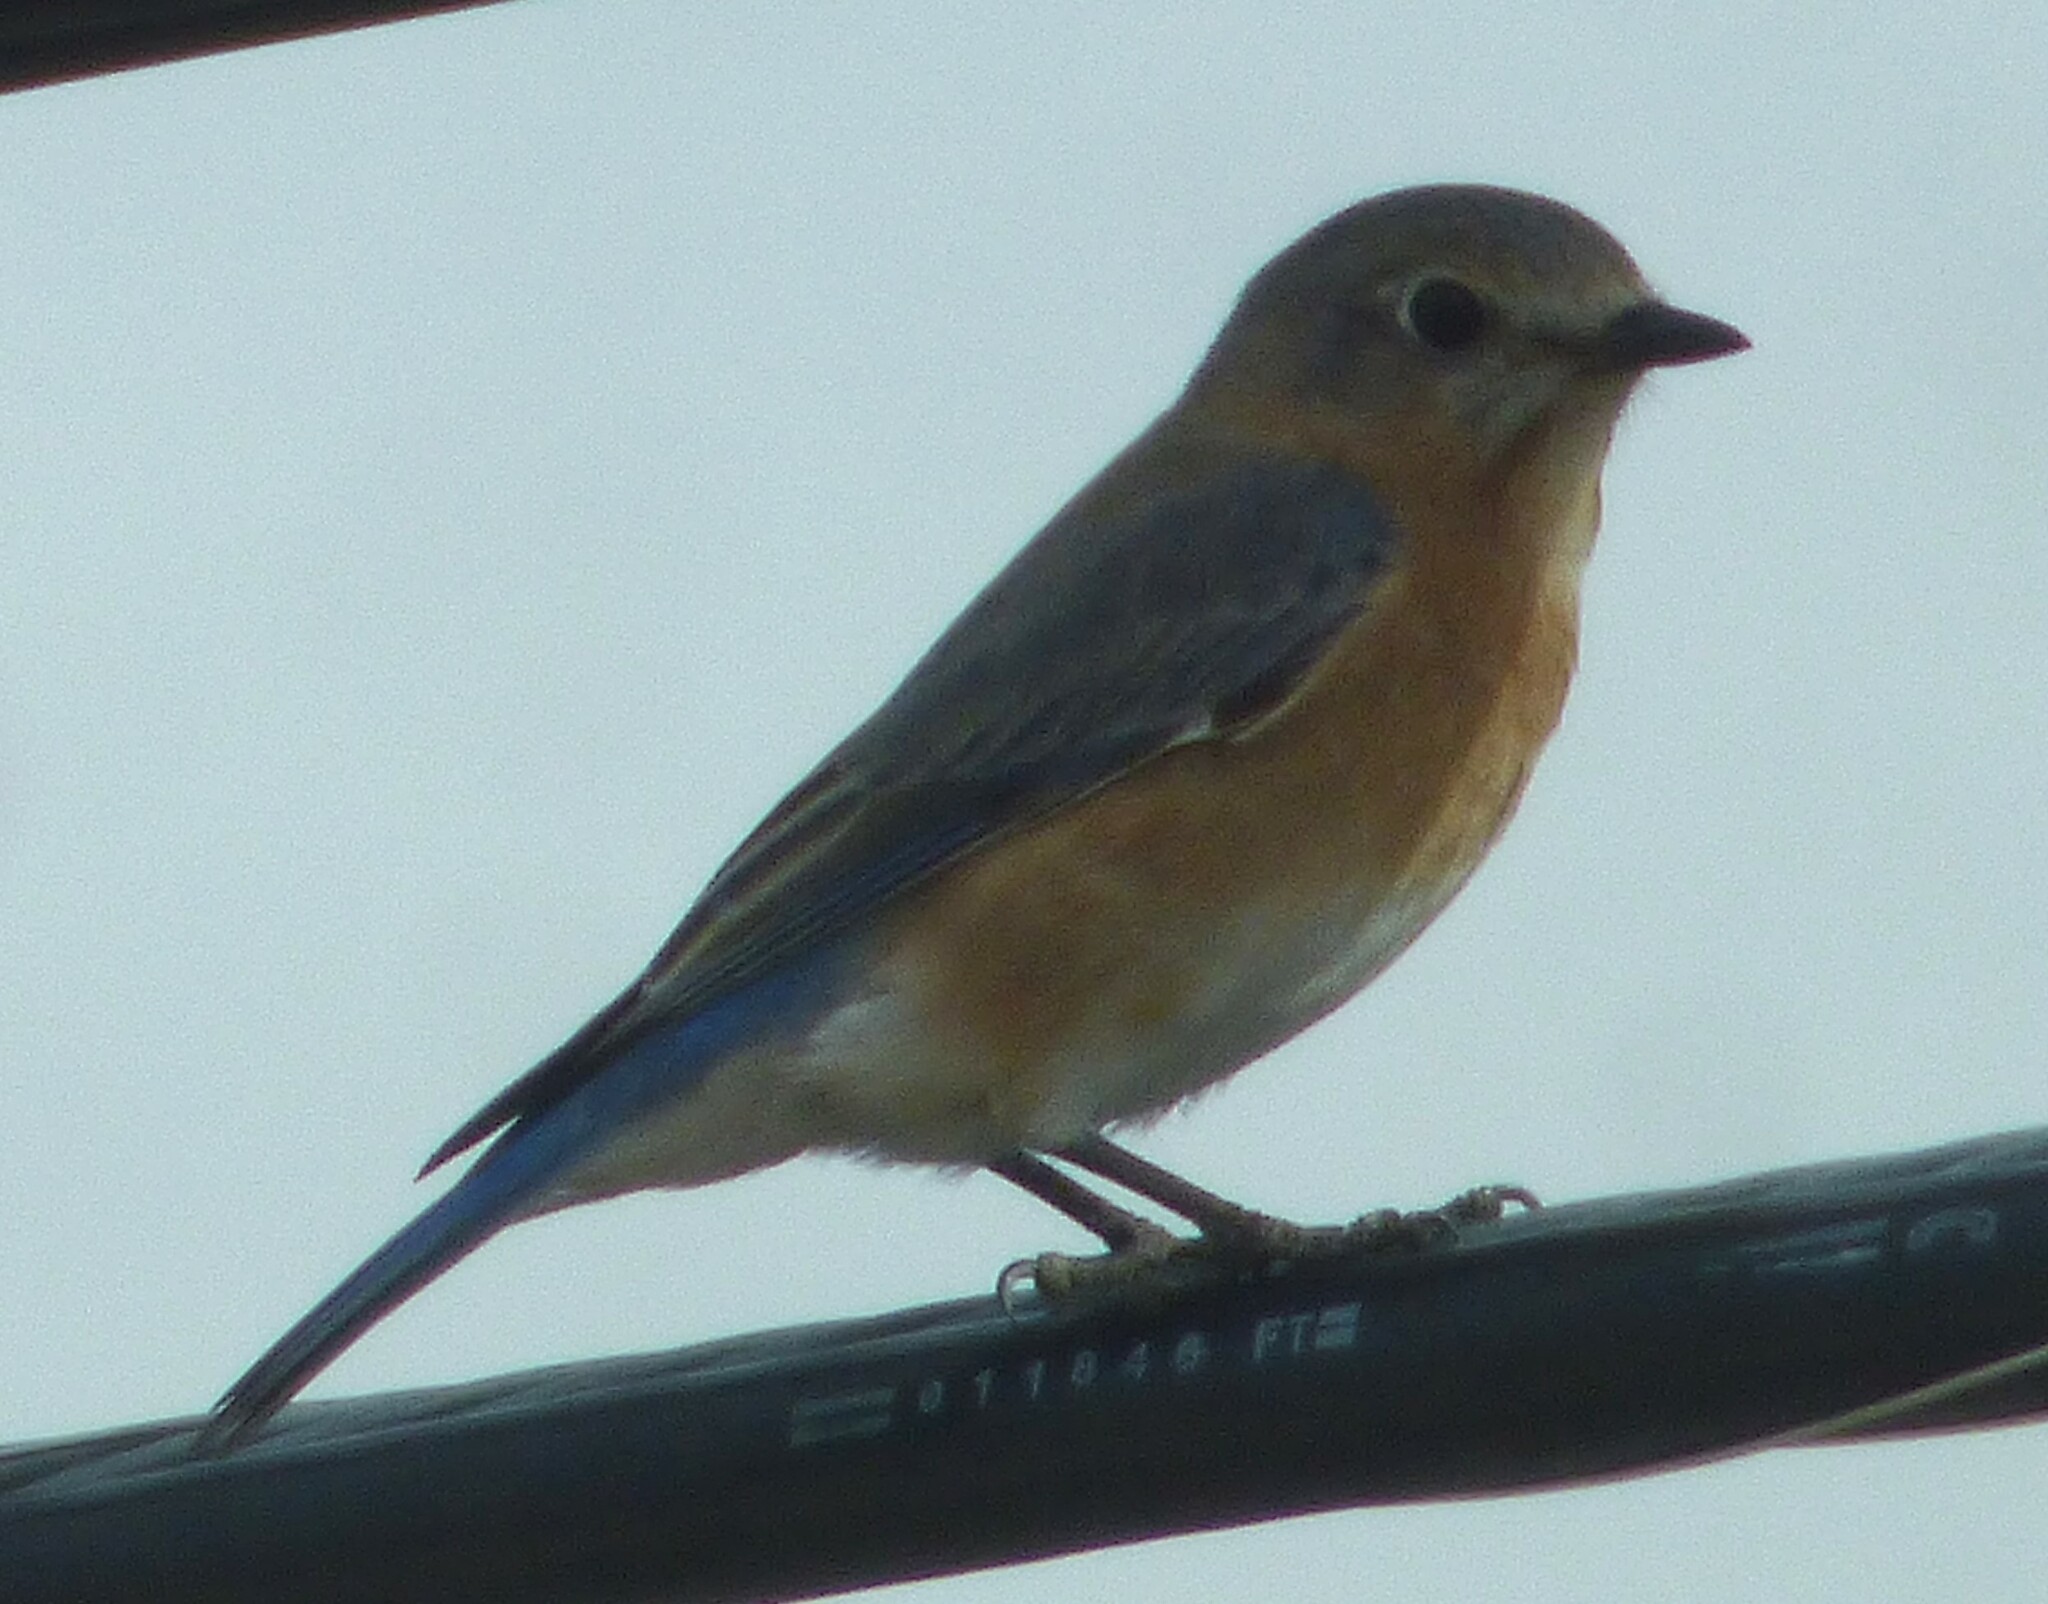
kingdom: Animalia
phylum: Chordata
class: Aves
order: Passeriformes
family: Turdidae
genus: Sialia
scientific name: Sialia sialis
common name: Eastern bluebird
